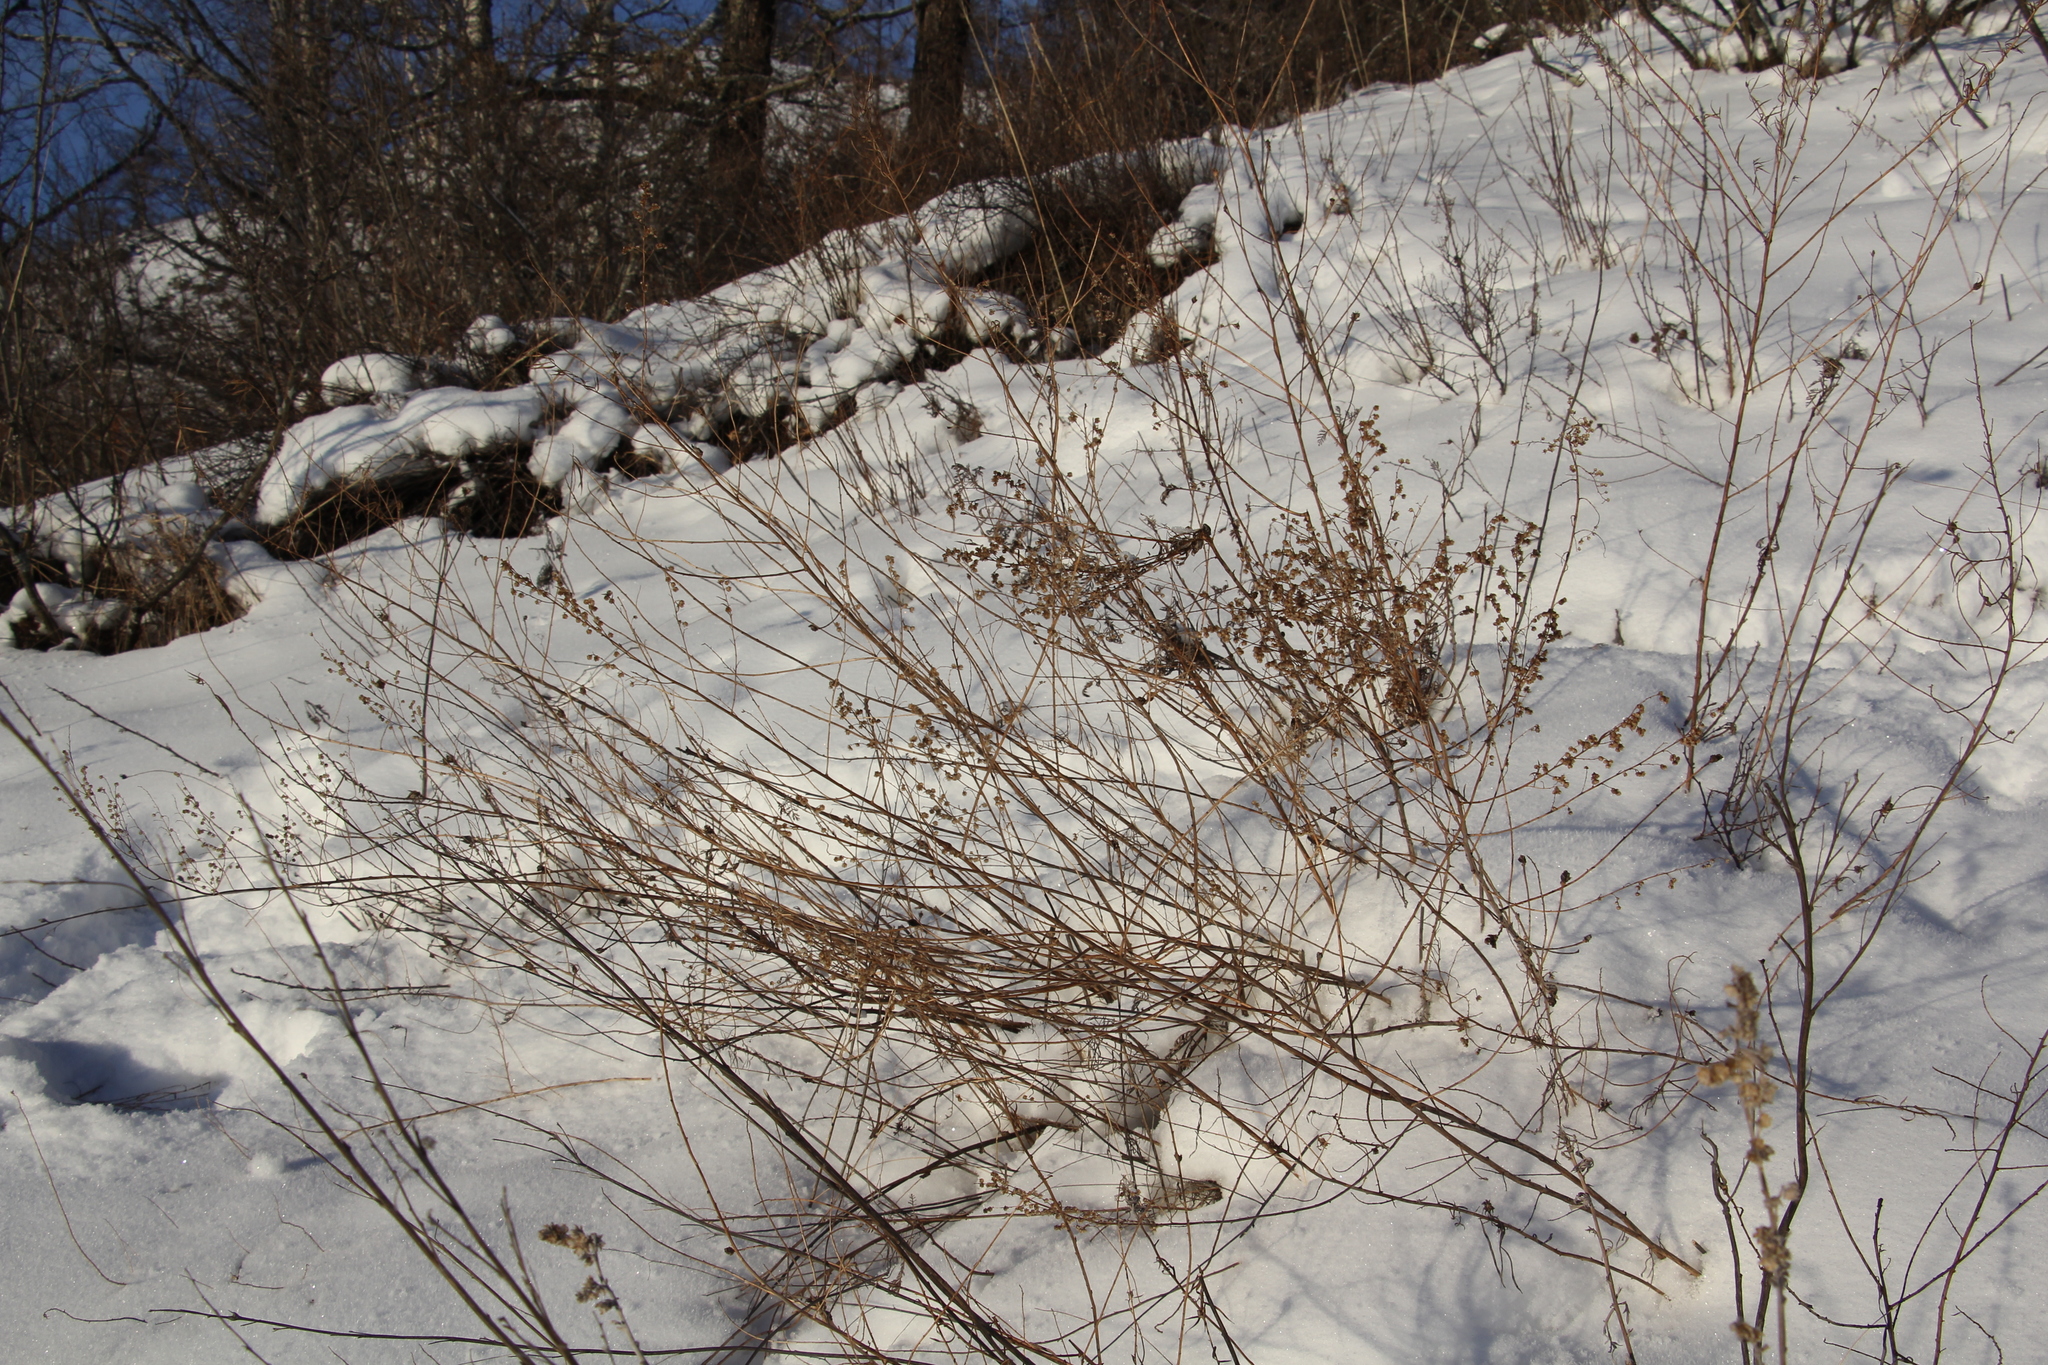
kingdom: Plantae
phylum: Tracheophyta
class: Magnoliopsida
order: Asterales
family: Asteraceae
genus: Artemisia
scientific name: Artemisia dracunculus
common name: Tarragon
